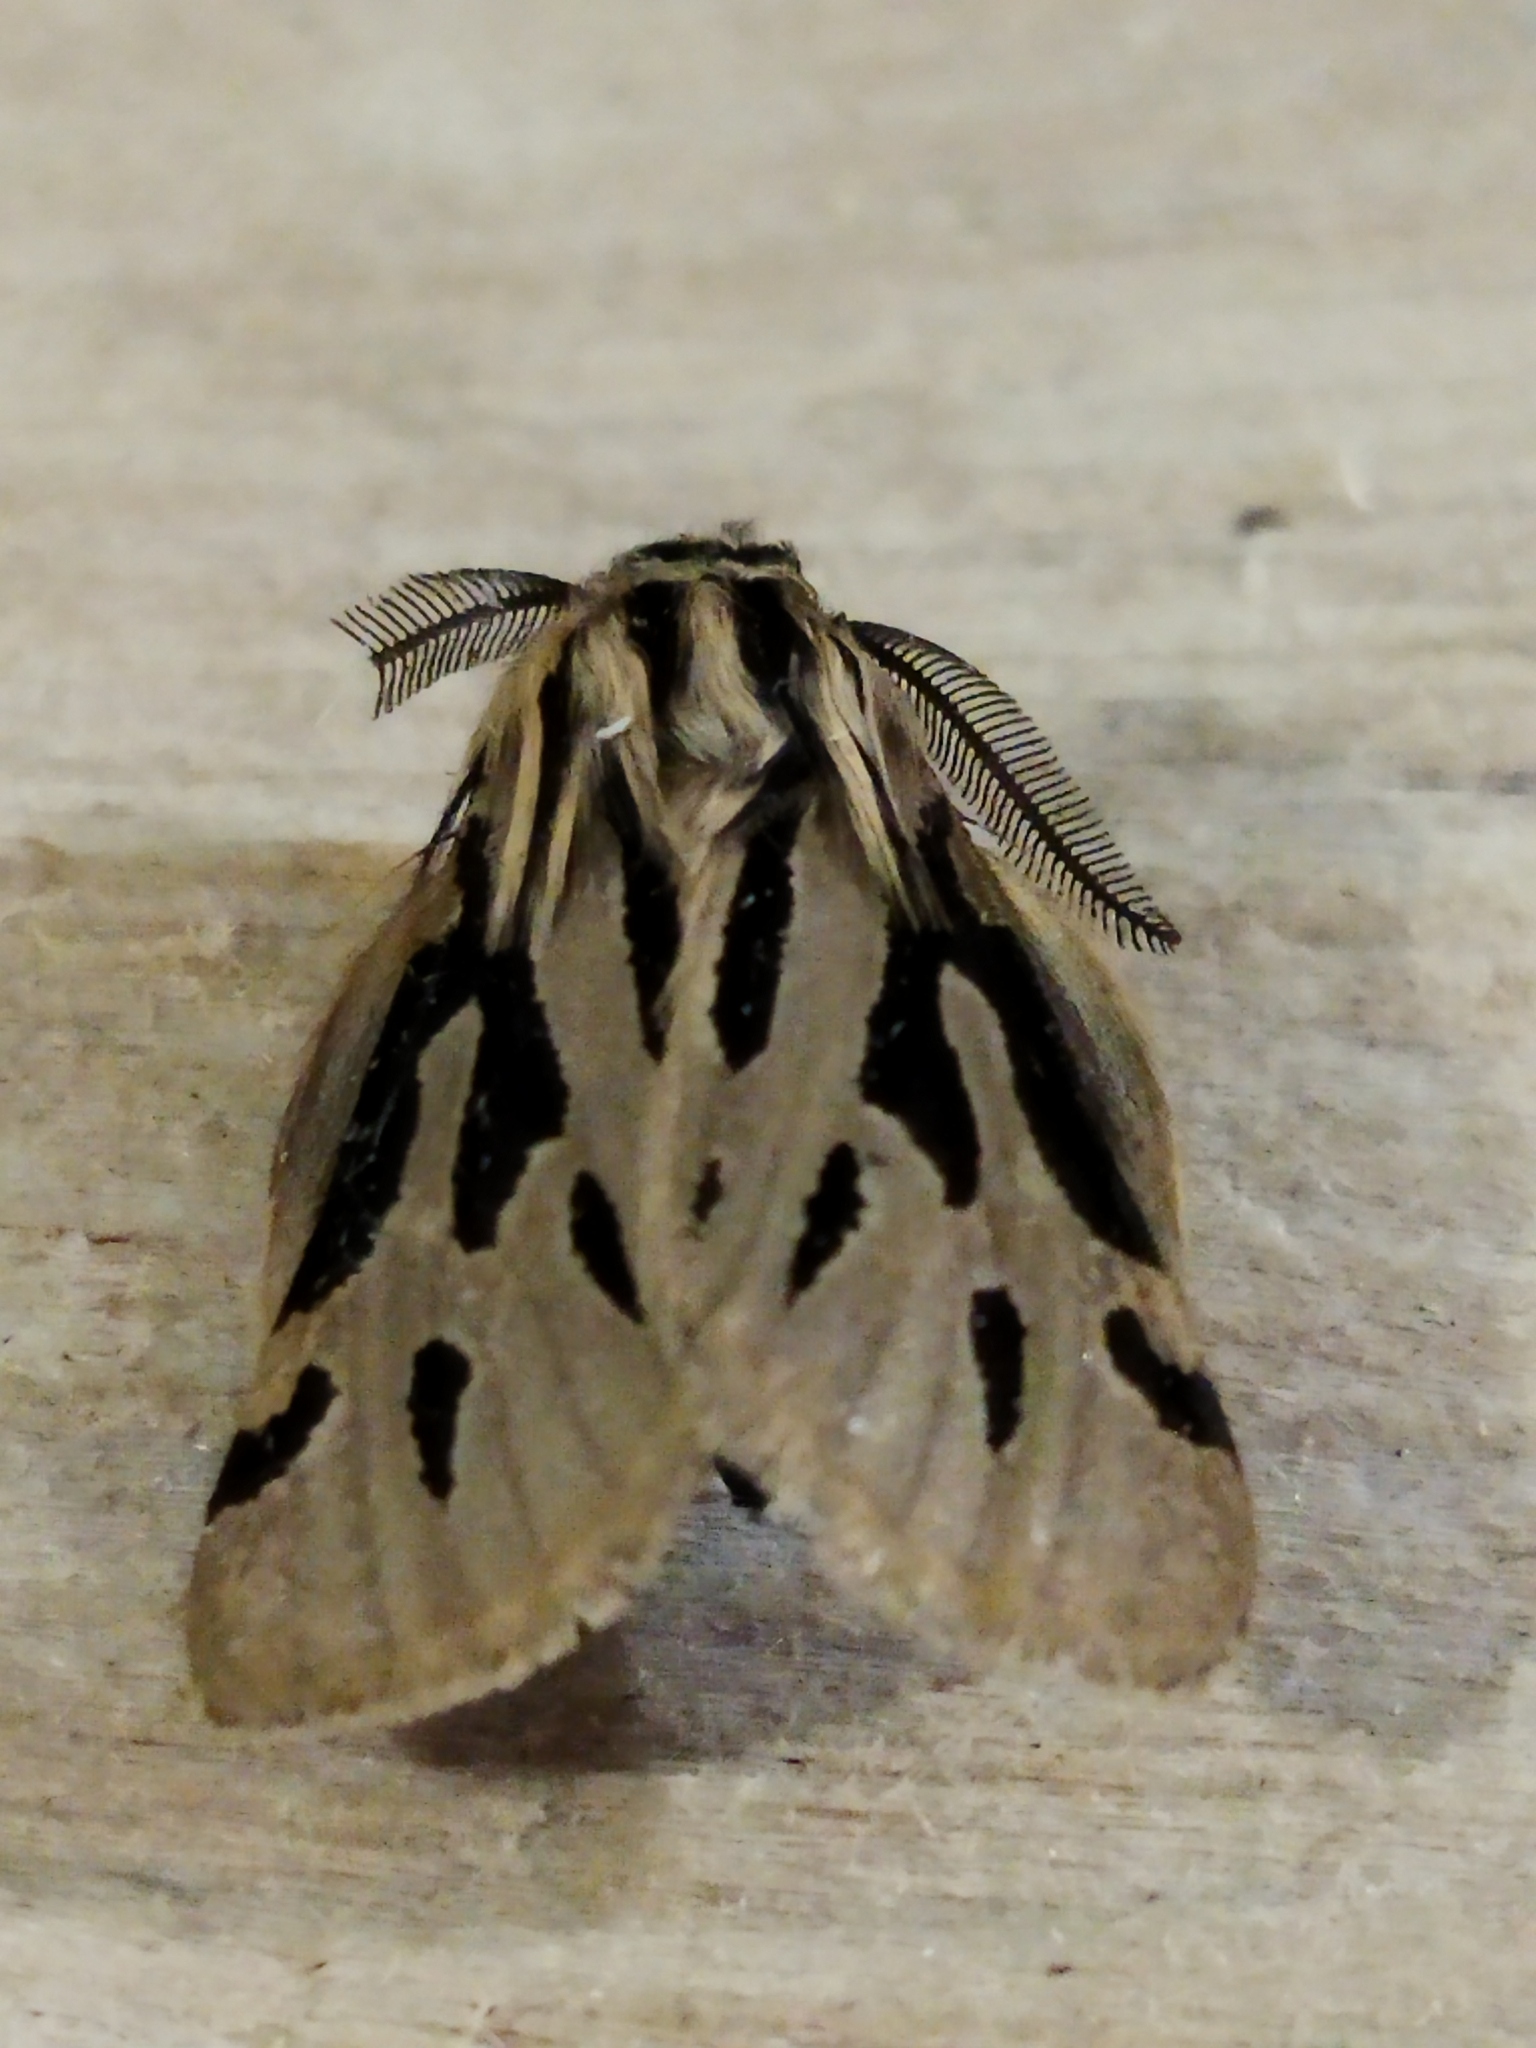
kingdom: Animalia
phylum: Arthropoda
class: Insecta
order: Lepidoptera
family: Erebidae
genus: Ocnogyna
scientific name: Ocnogyna parasita
